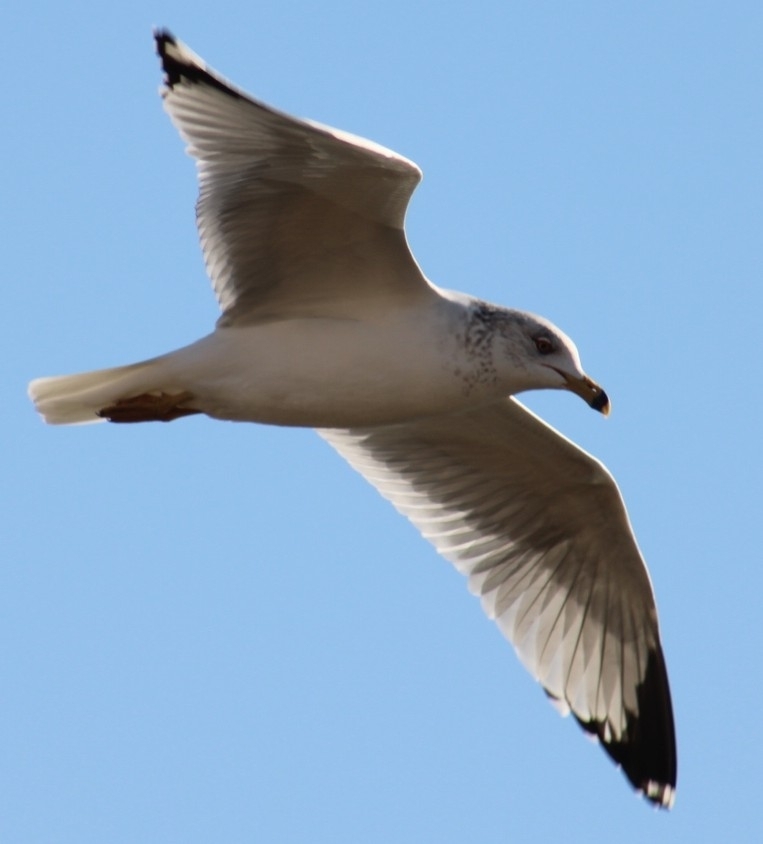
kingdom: Animalia
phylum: Chordata
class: Aves
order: Charadriiformes
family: Laridae
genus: Larus
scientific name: Larus delawarensis
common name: Ring-billed gull
